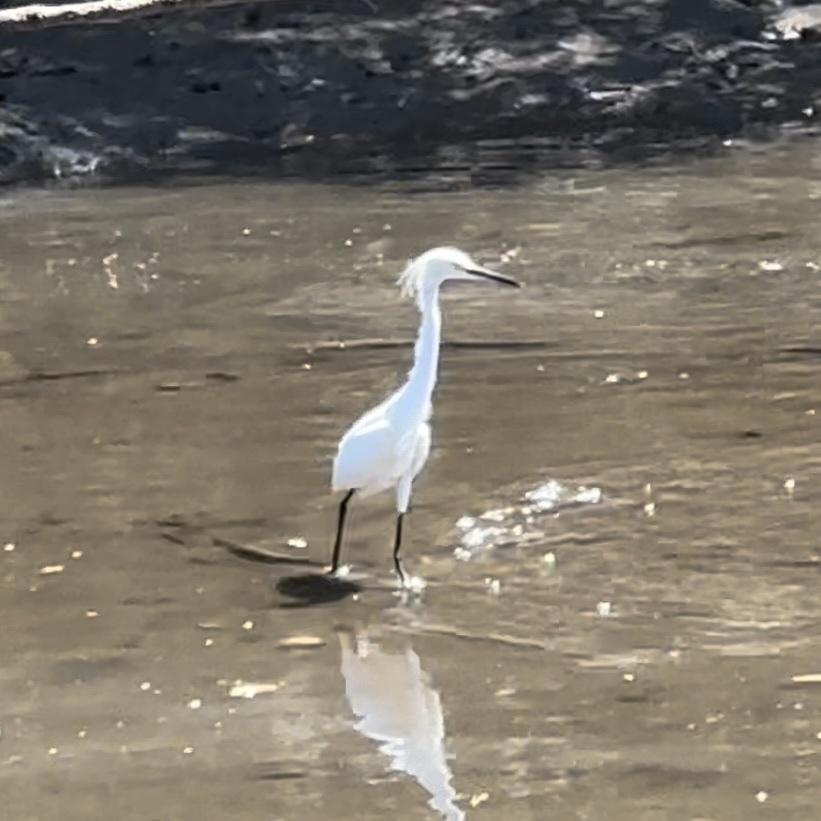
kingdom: Animalia
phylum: Chordata
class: Aves
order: Pelecaniformes
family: Ardeidae
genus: Egretta
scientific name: Egretta thula
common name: Snowy egret
